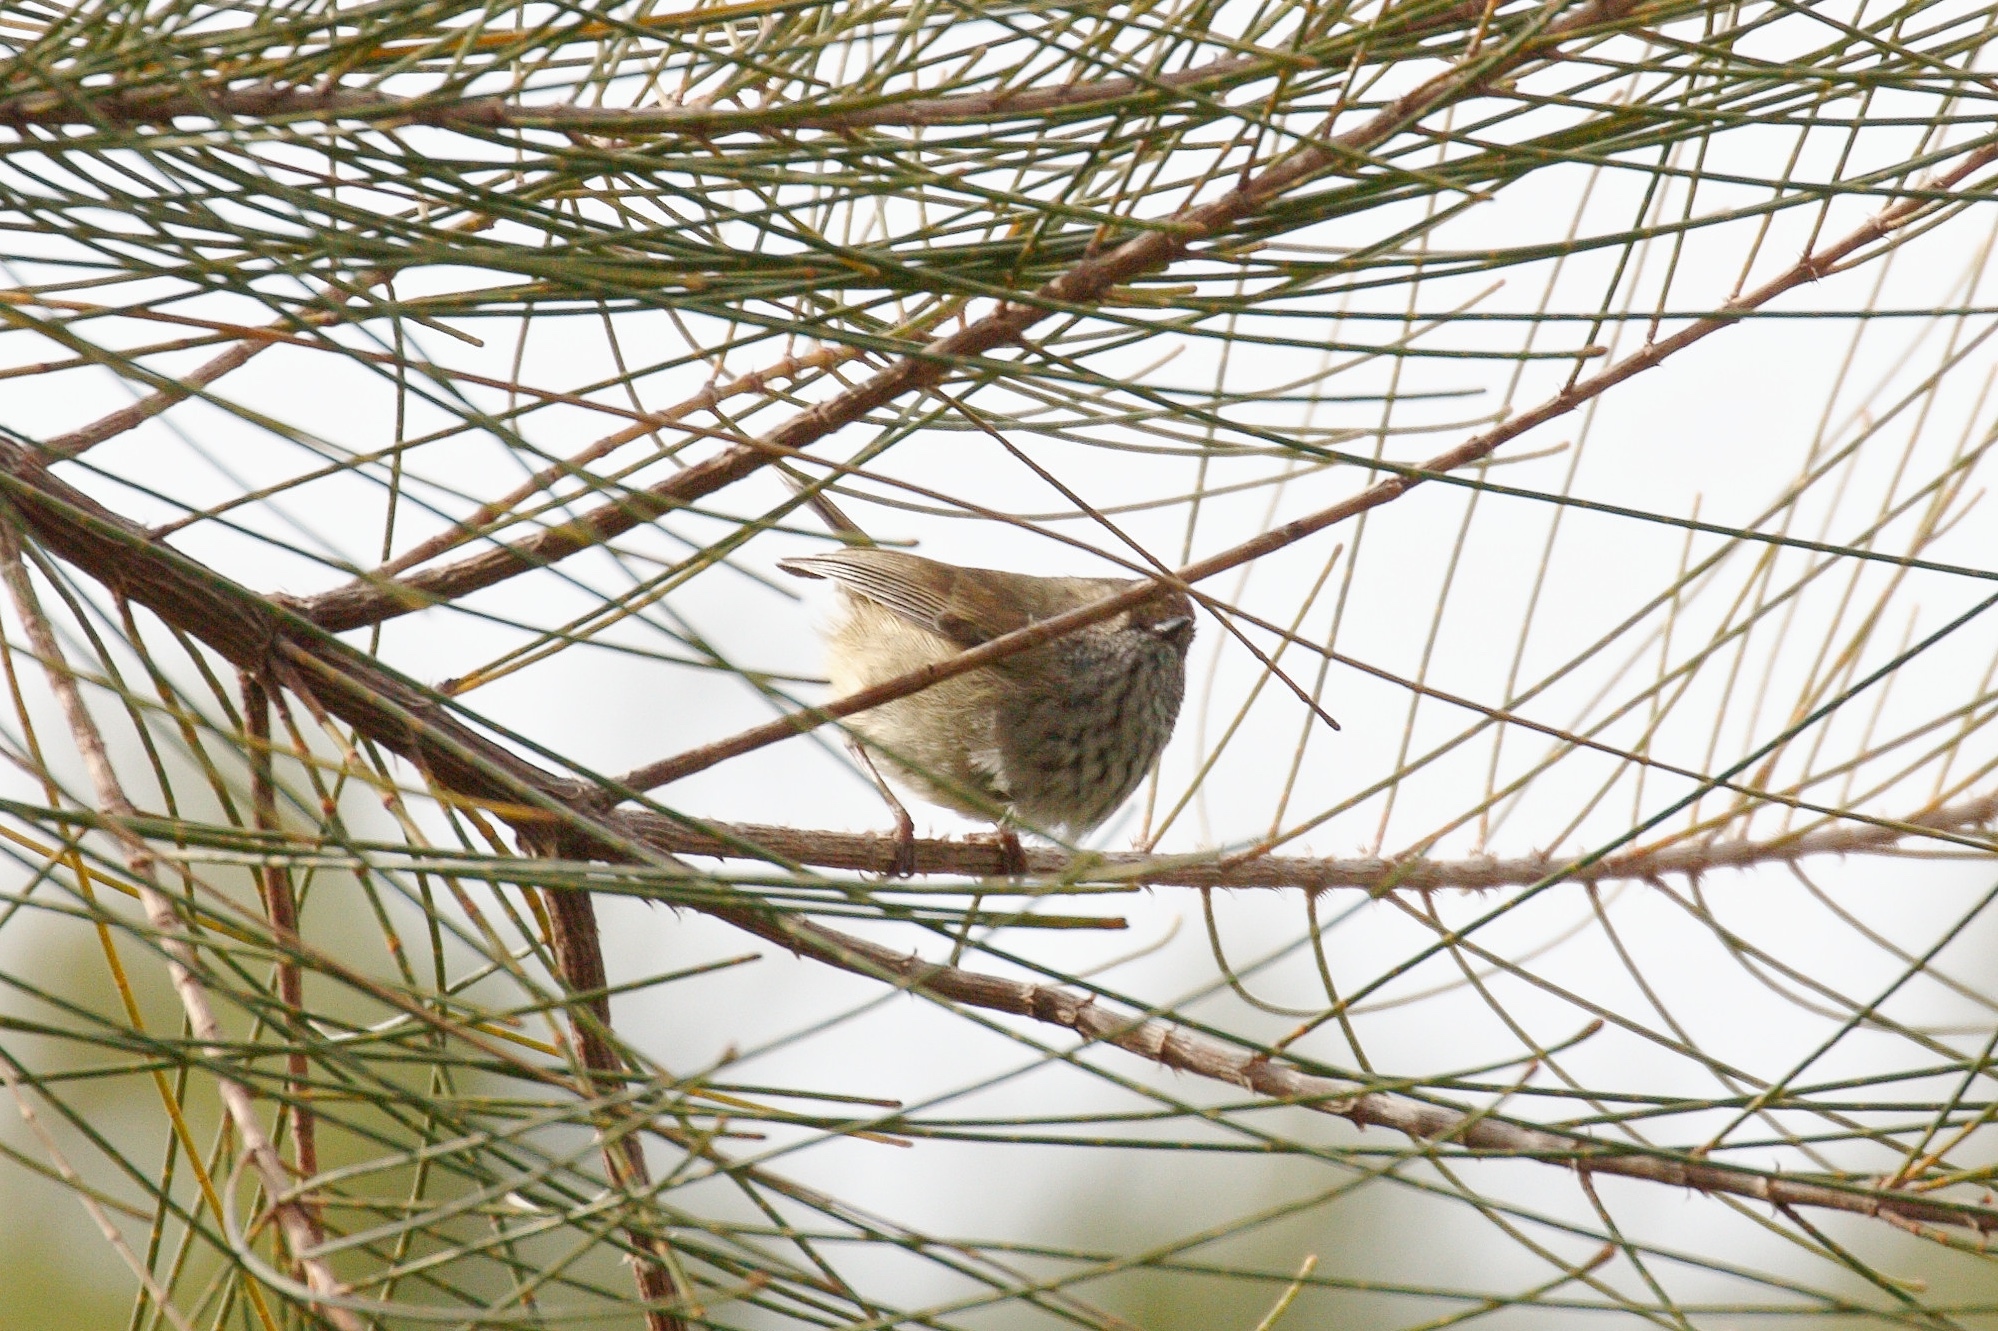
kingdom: Animalia
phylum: Chordata
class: Aves
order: Passeriformes
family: Acanthizidae
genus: Acanthiza
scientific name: Acanthiza pusilla
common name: Brown thornbill
